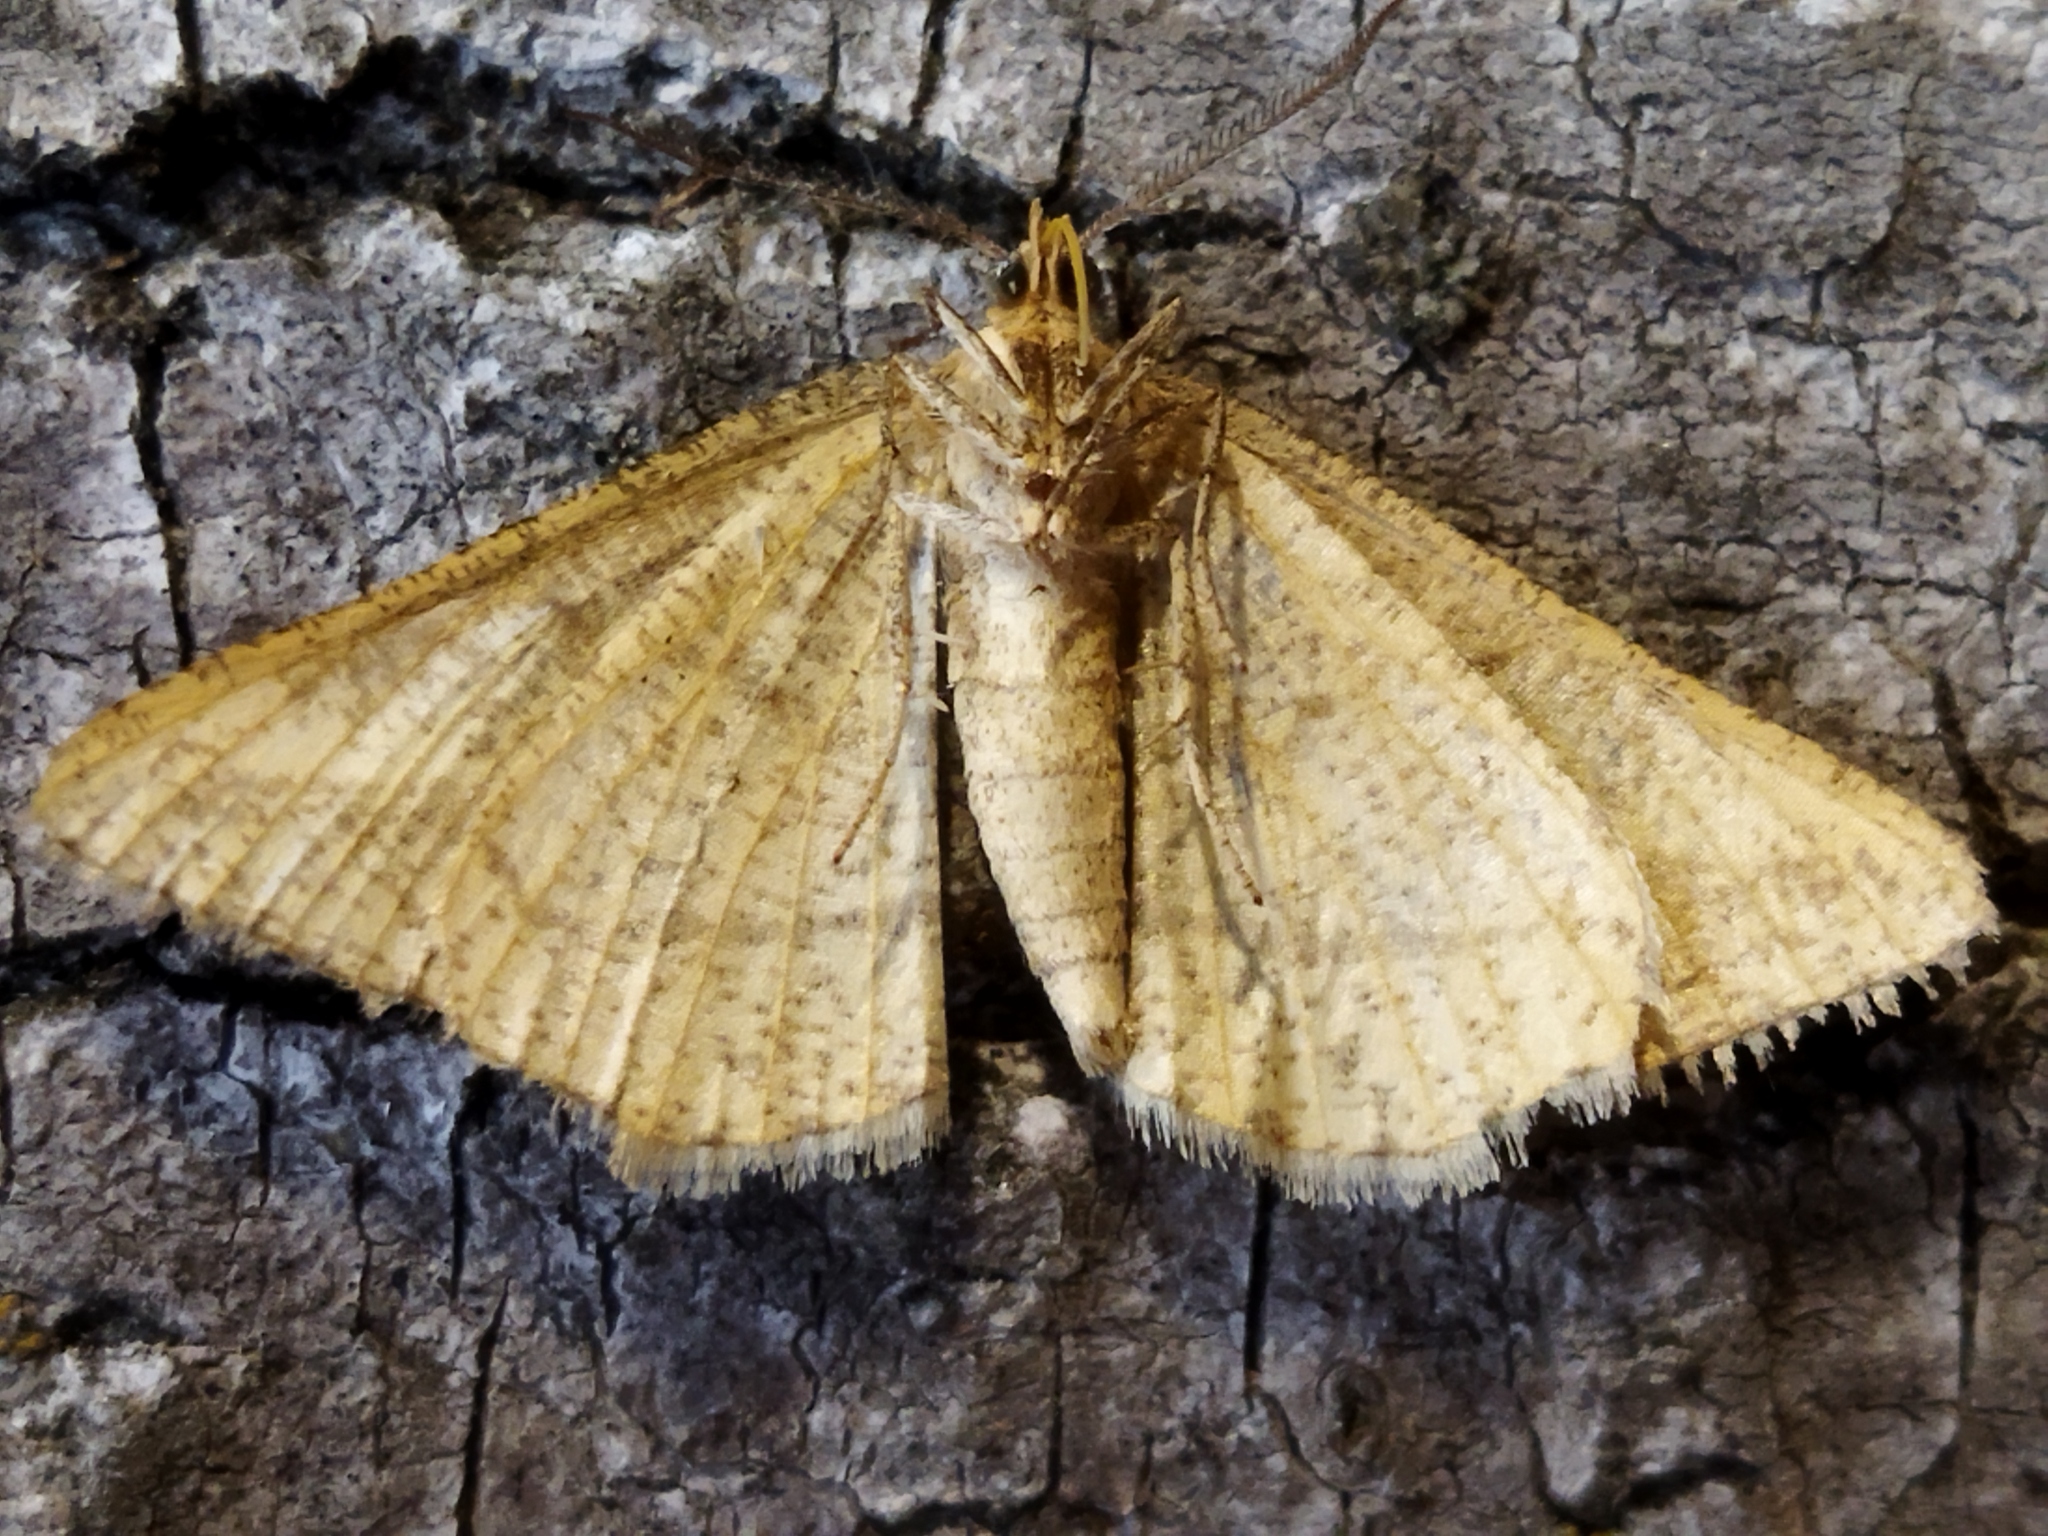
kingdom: Animalia
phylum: Arthropoda
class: Insecta
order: Lepidoptera
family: Geometridae
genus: Tephrina
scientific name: Tephrina arenacearia
